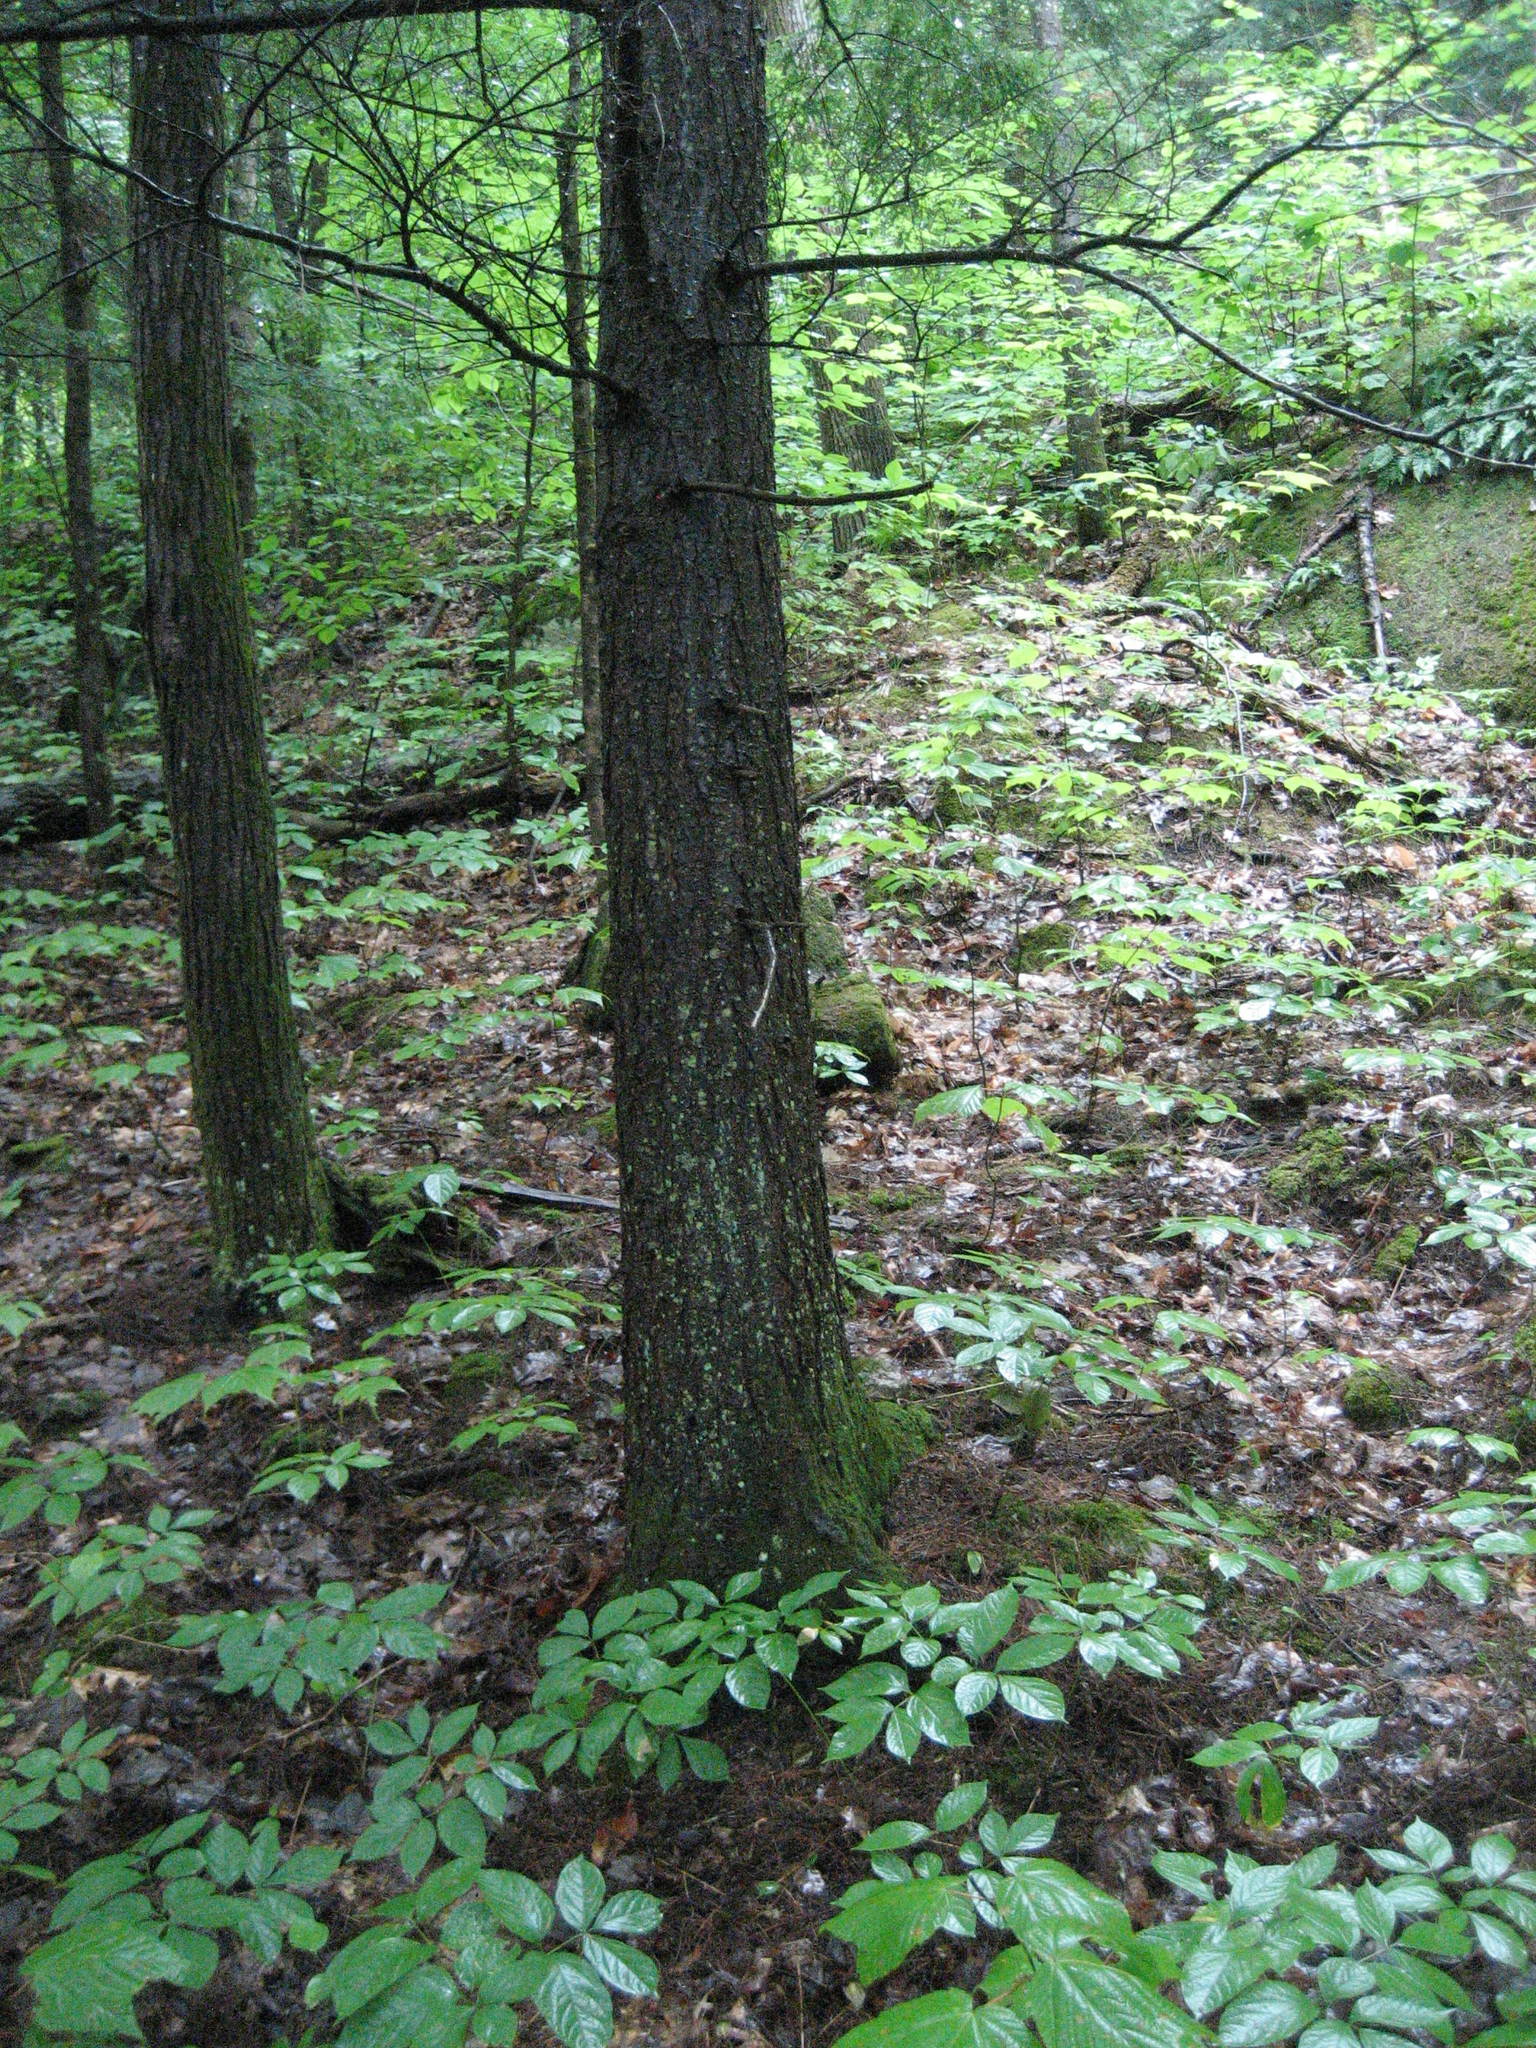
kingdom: Plantae
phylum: Tracheophyta
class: Pinopsida
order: Pinales
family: Pinaceae
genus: Tsuga
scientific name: Tsuga canadensis
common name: Eastern hemlock
